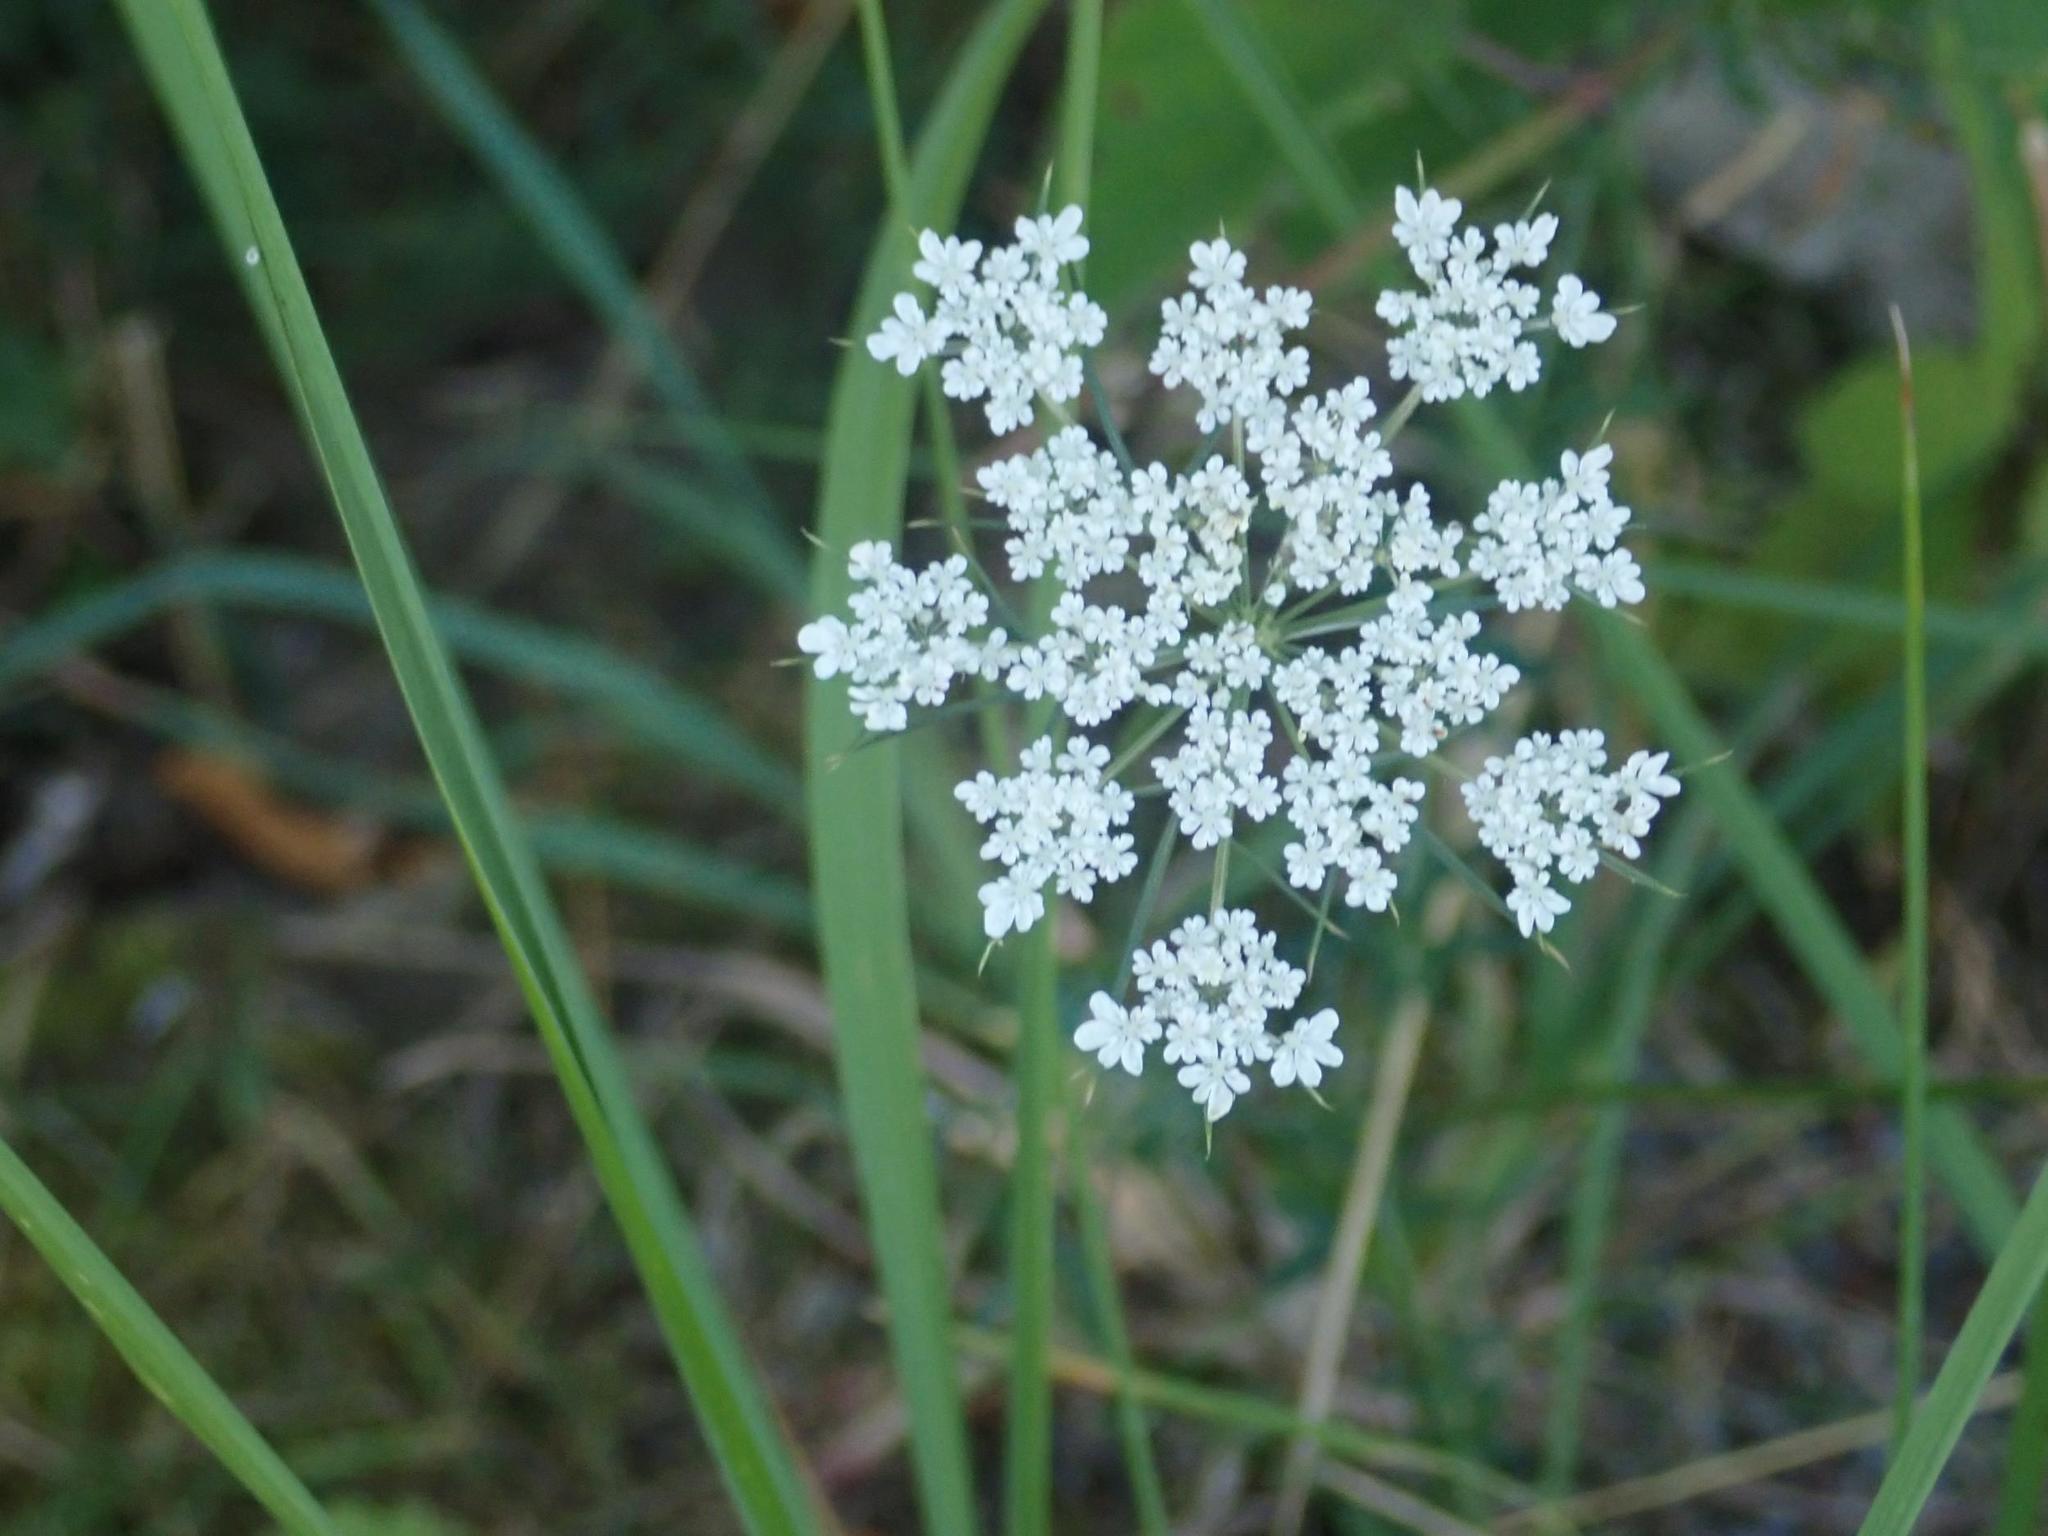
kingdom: Plantae
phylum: Tracheophyta
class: Magnoliopsida
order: Apiales
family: Apiaceae
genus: Daucus
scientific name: Daucus carota
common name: Wild carrot
